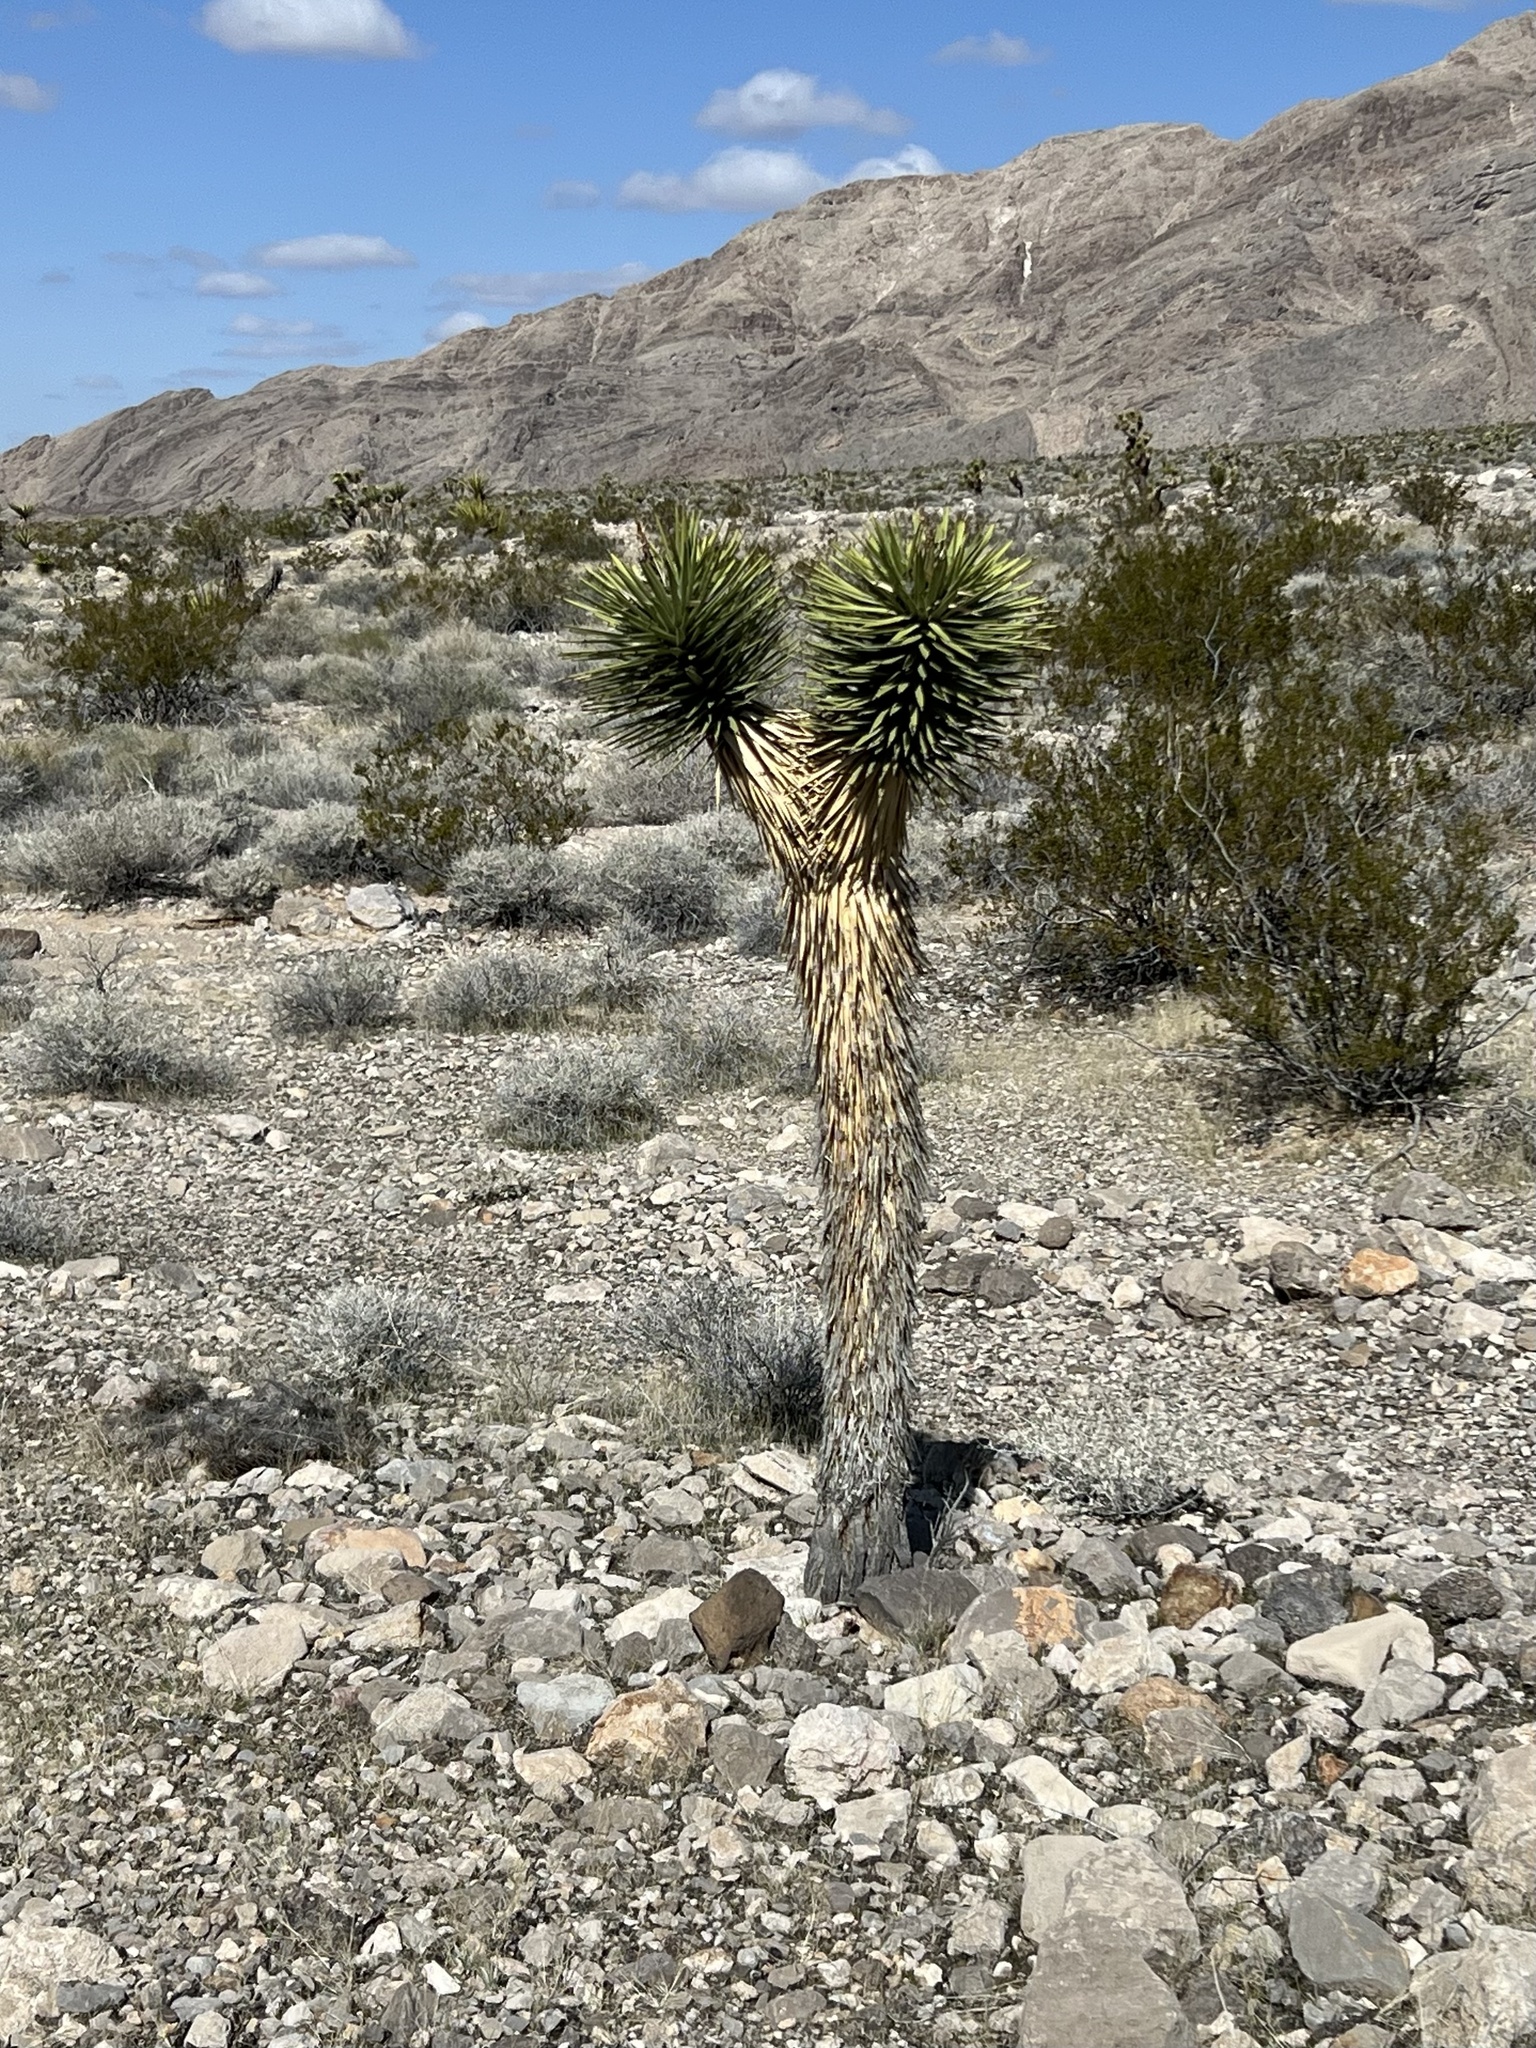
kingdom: Plantae
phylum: Tracheophyta
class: Liliopsida
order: Asparagales
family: Asparagaceae
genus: Yucca
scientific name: Yucca brevifolia
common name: Joshua tree
